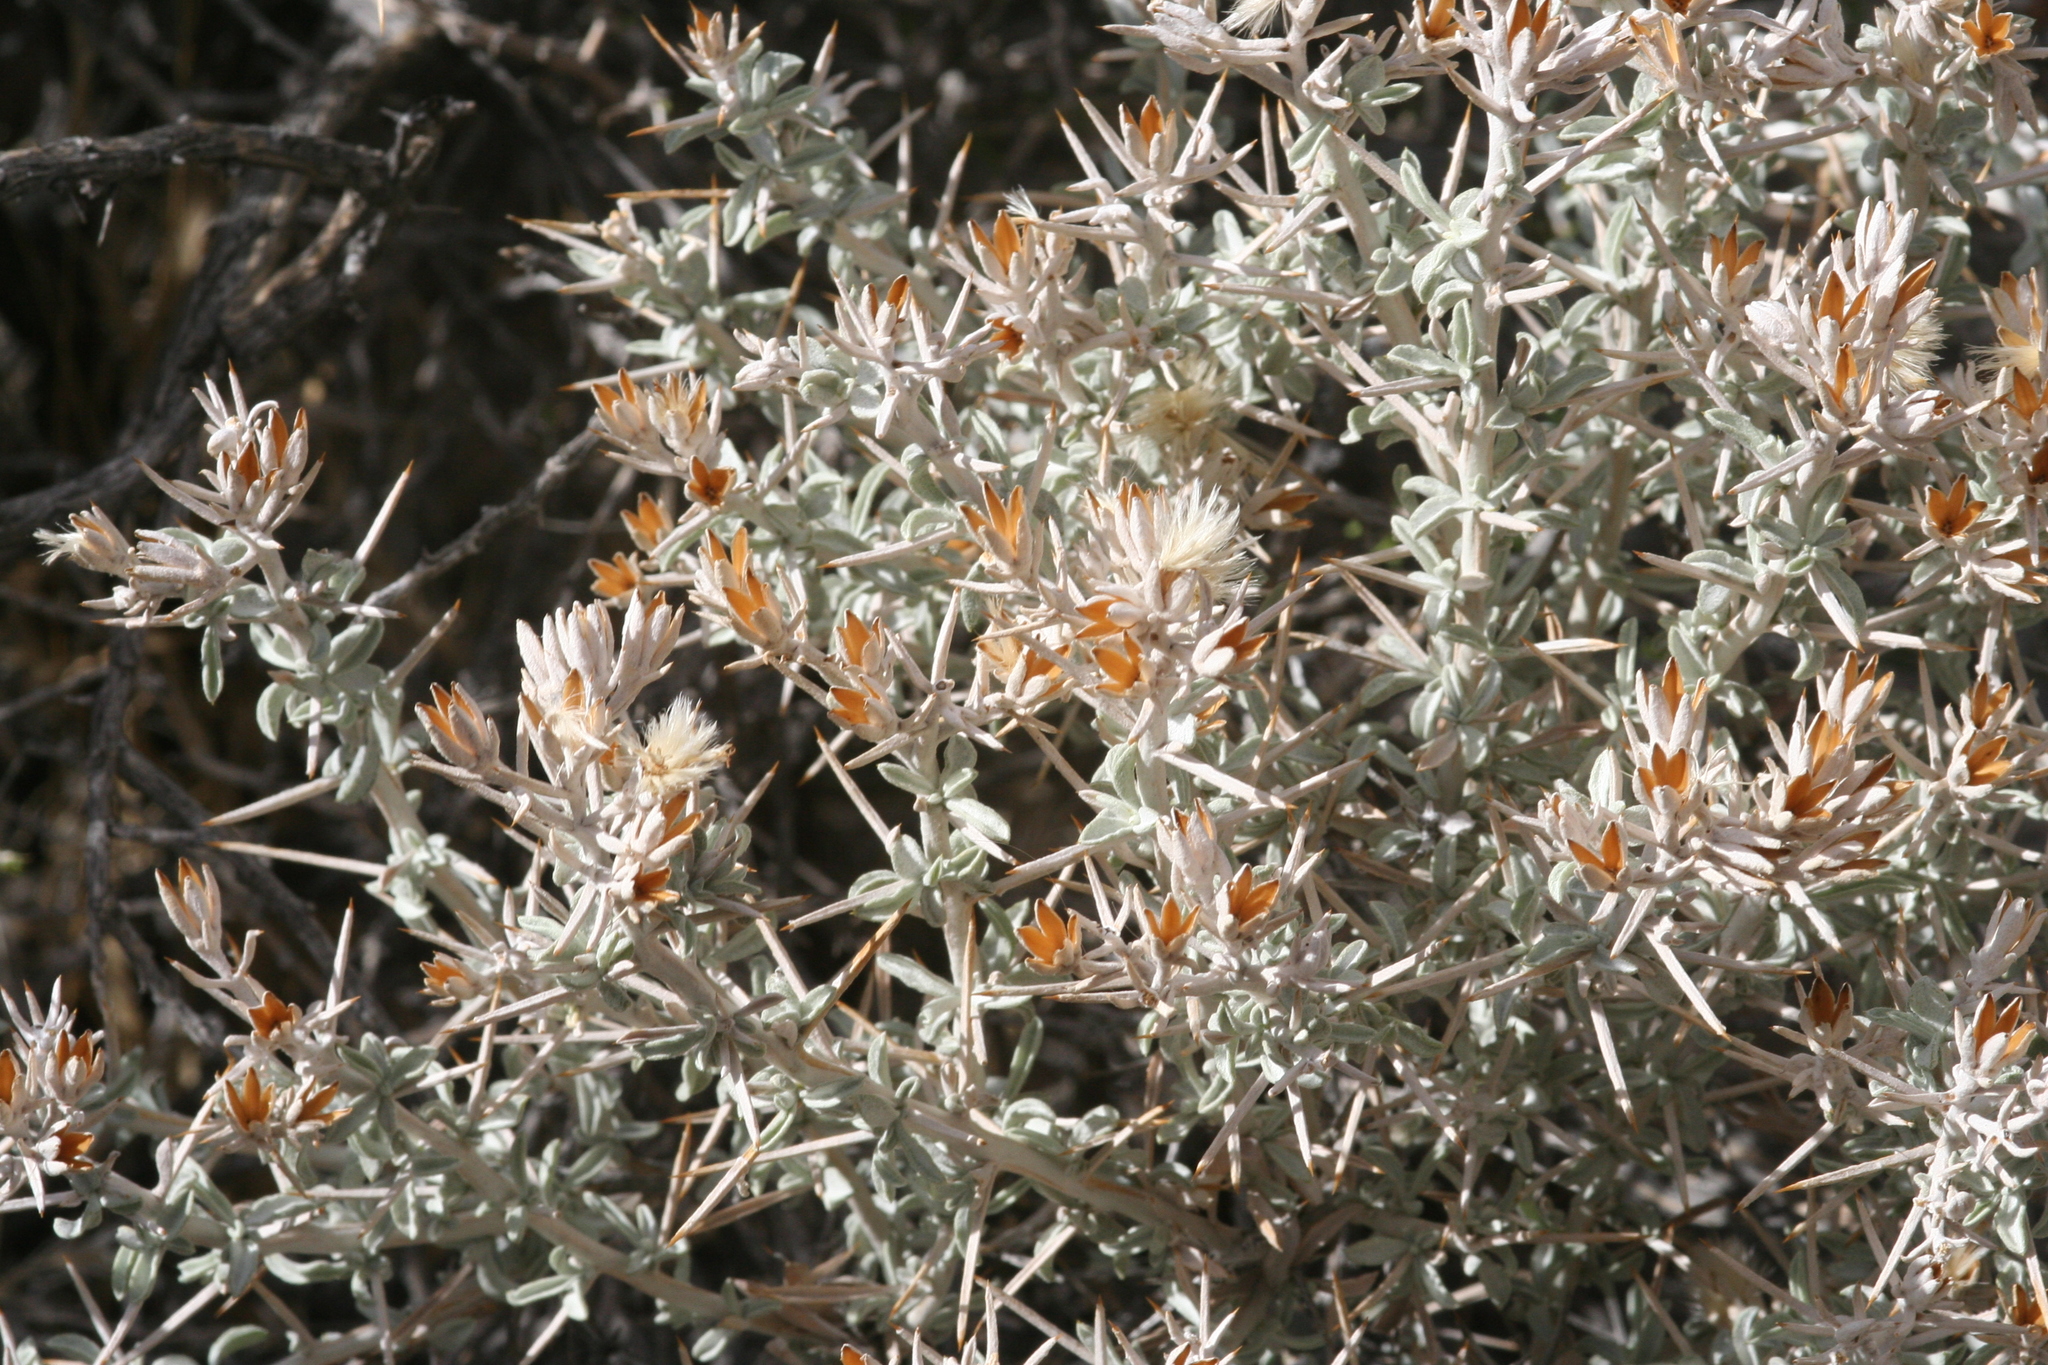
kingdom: Plantae
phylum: Tracheophyta
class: Magnoliopsida
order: Asterales
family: Asteraceae
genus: Tetradymia
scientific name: Tetradymia stenolepis
